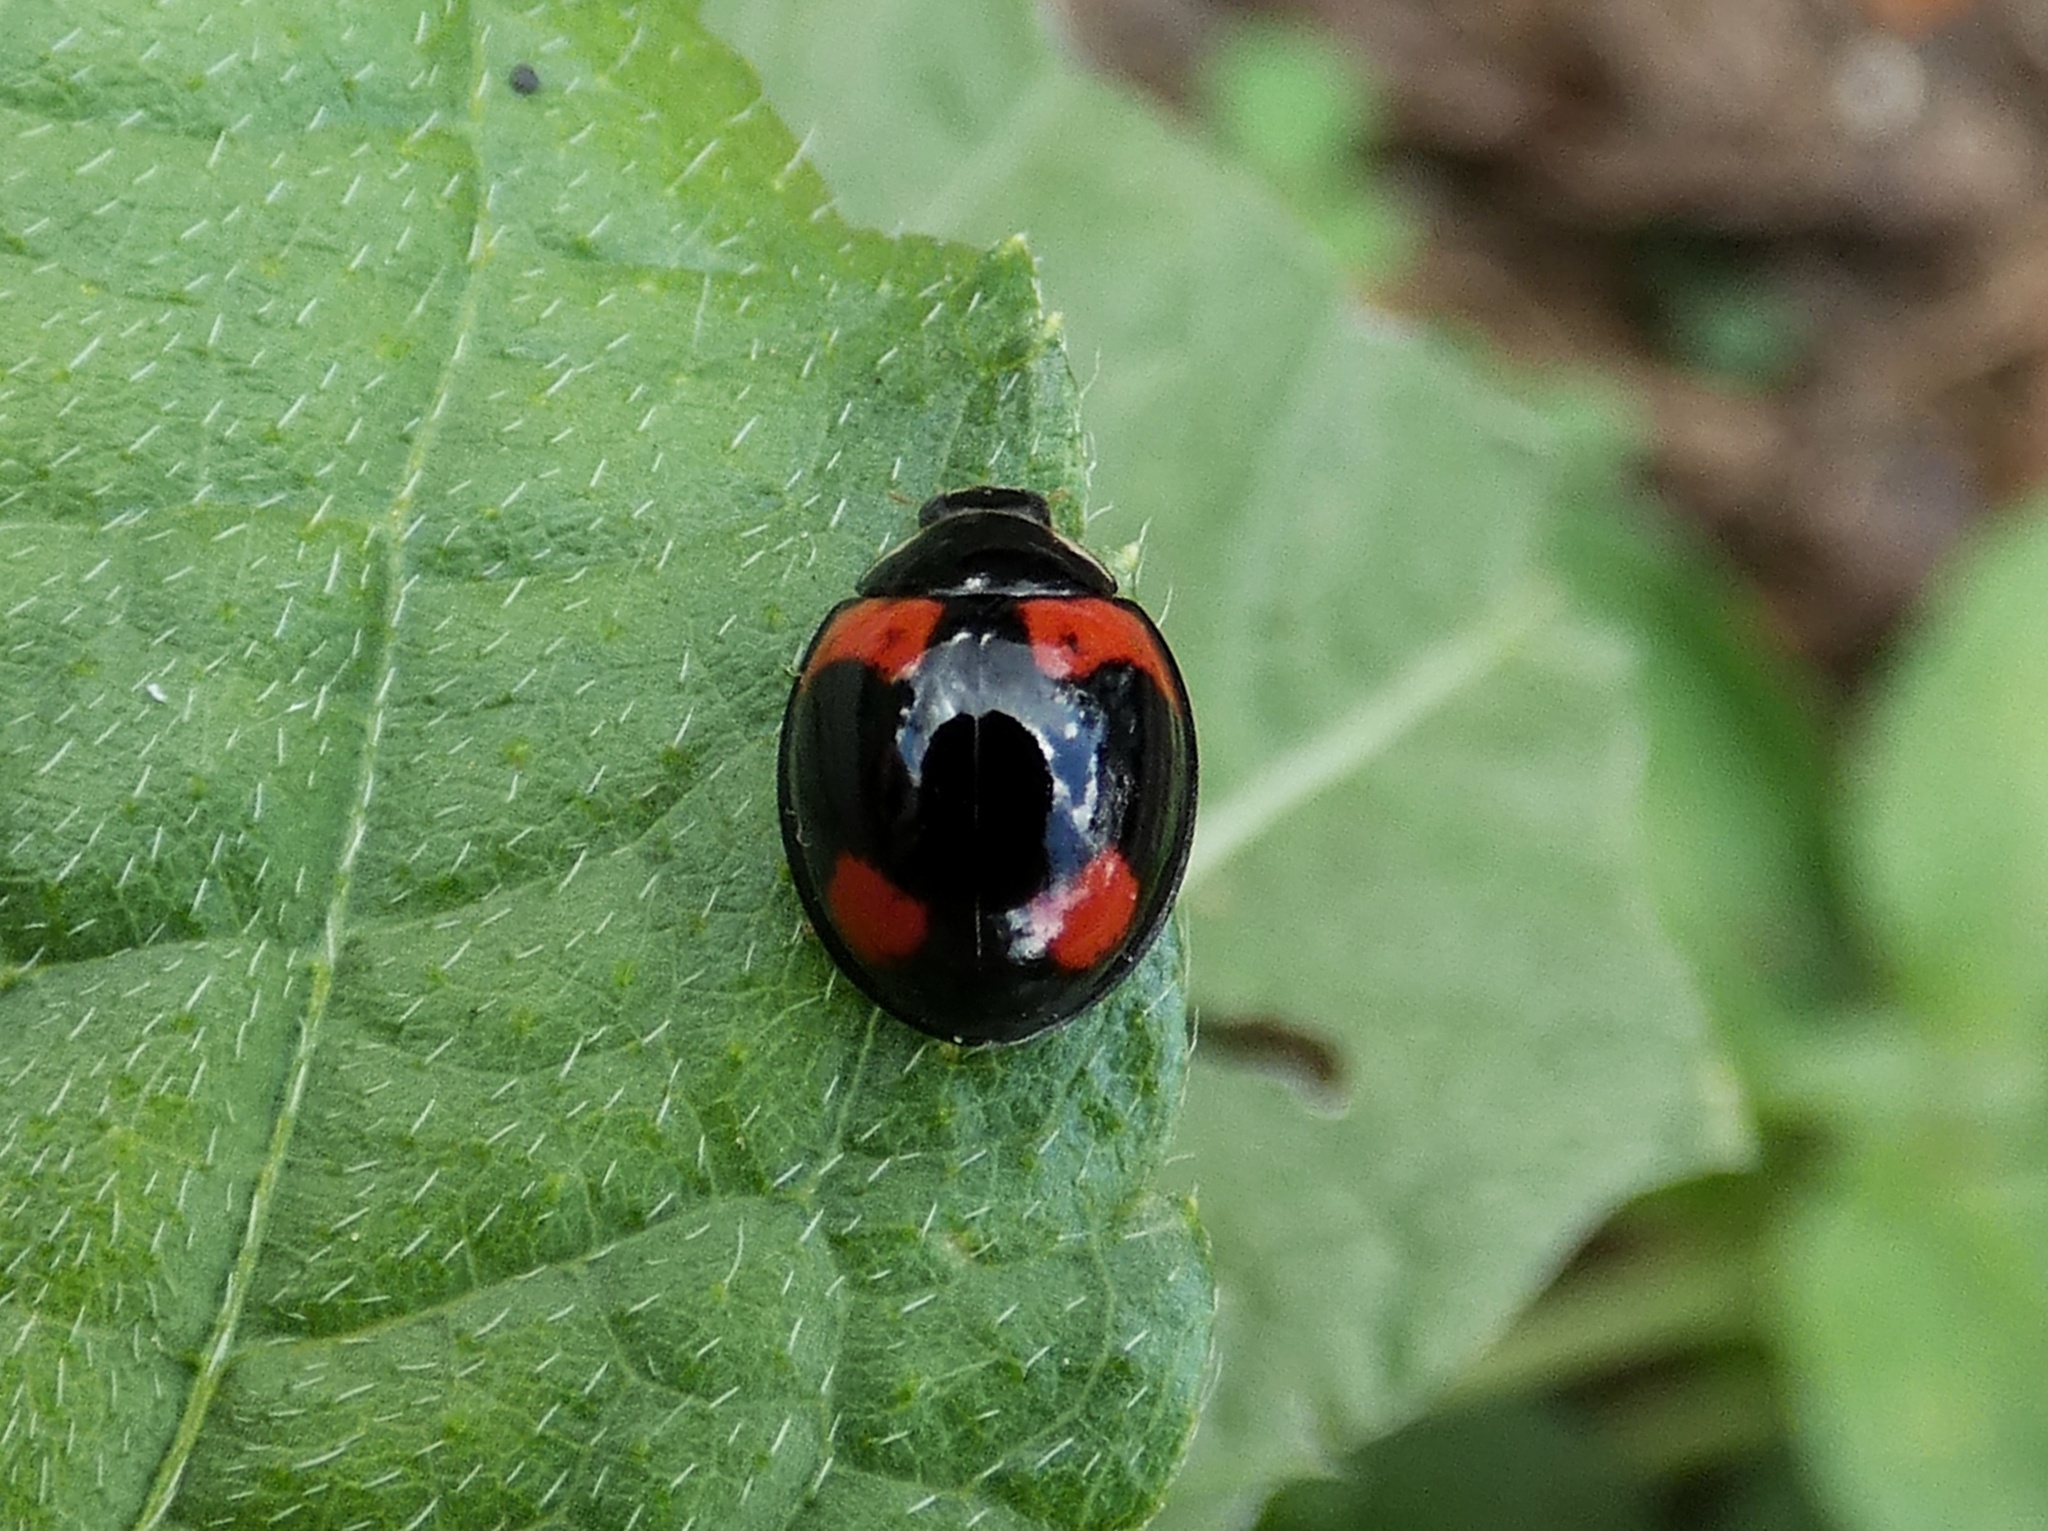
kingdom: Animalia
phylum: Arthropoda
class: Insecta
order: Coleoptera
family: Coccinellidae
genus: Cheilomenes
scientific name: Cheilomenes sexmaculata
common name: Ladybird beetle
